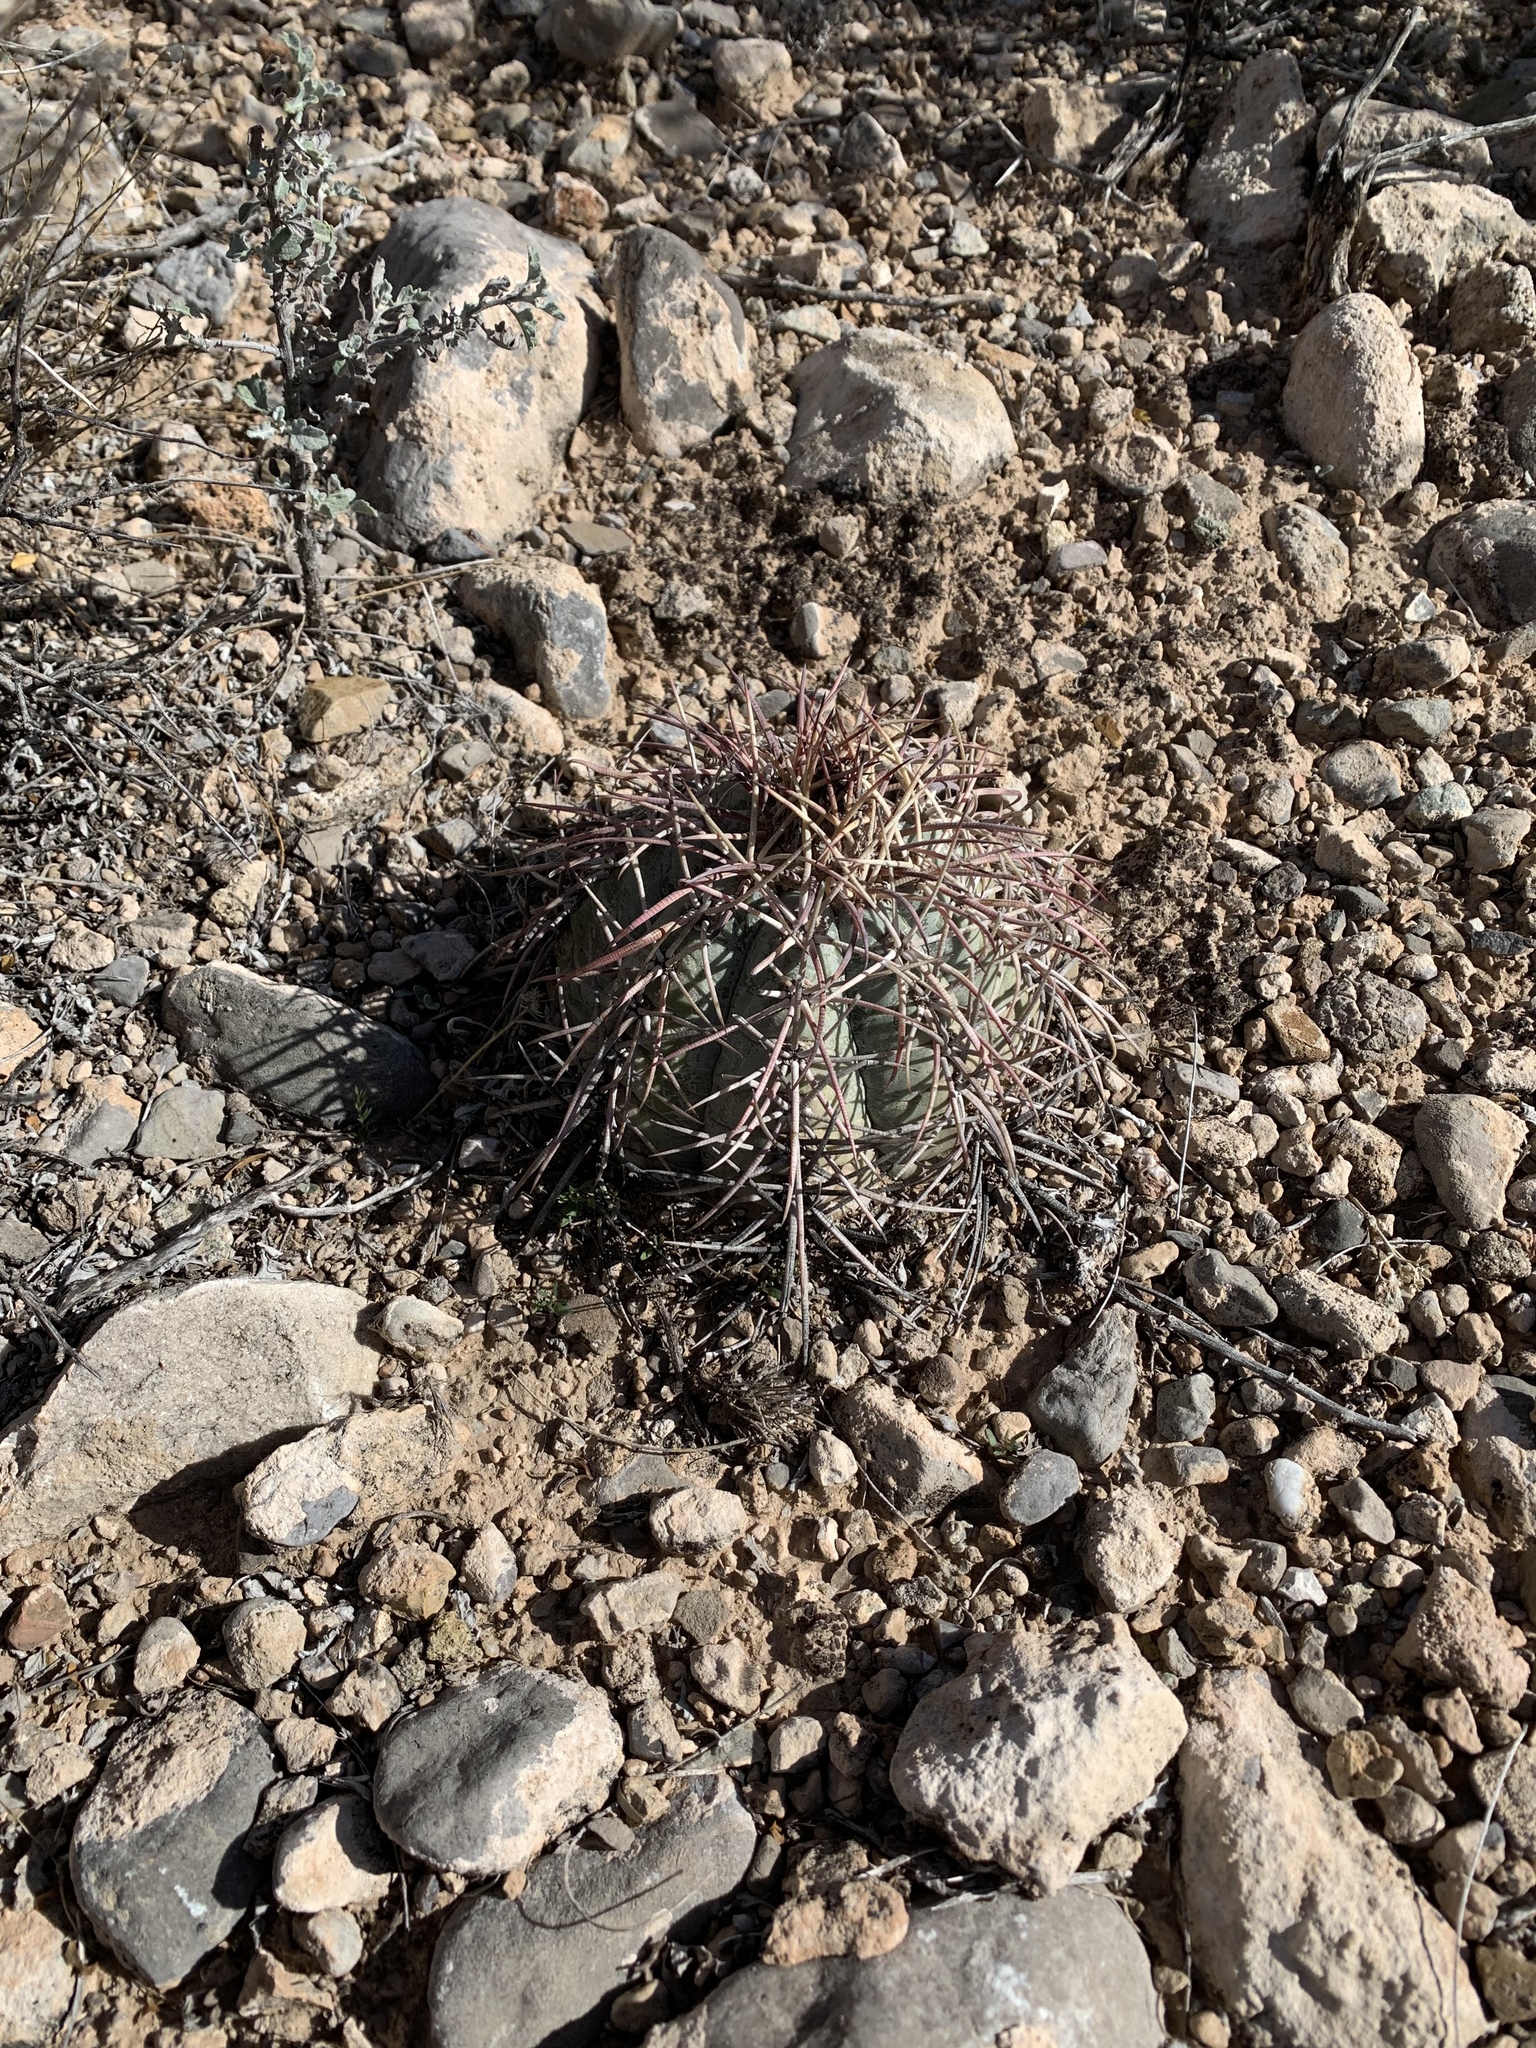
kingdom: Plantae
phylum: Tracheophyta
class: Magnoliopsida
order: Caryophyllales
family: Cactaceae
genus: Echinocactus
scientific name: Echinocactus horizonthalonius
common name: Devilshead
